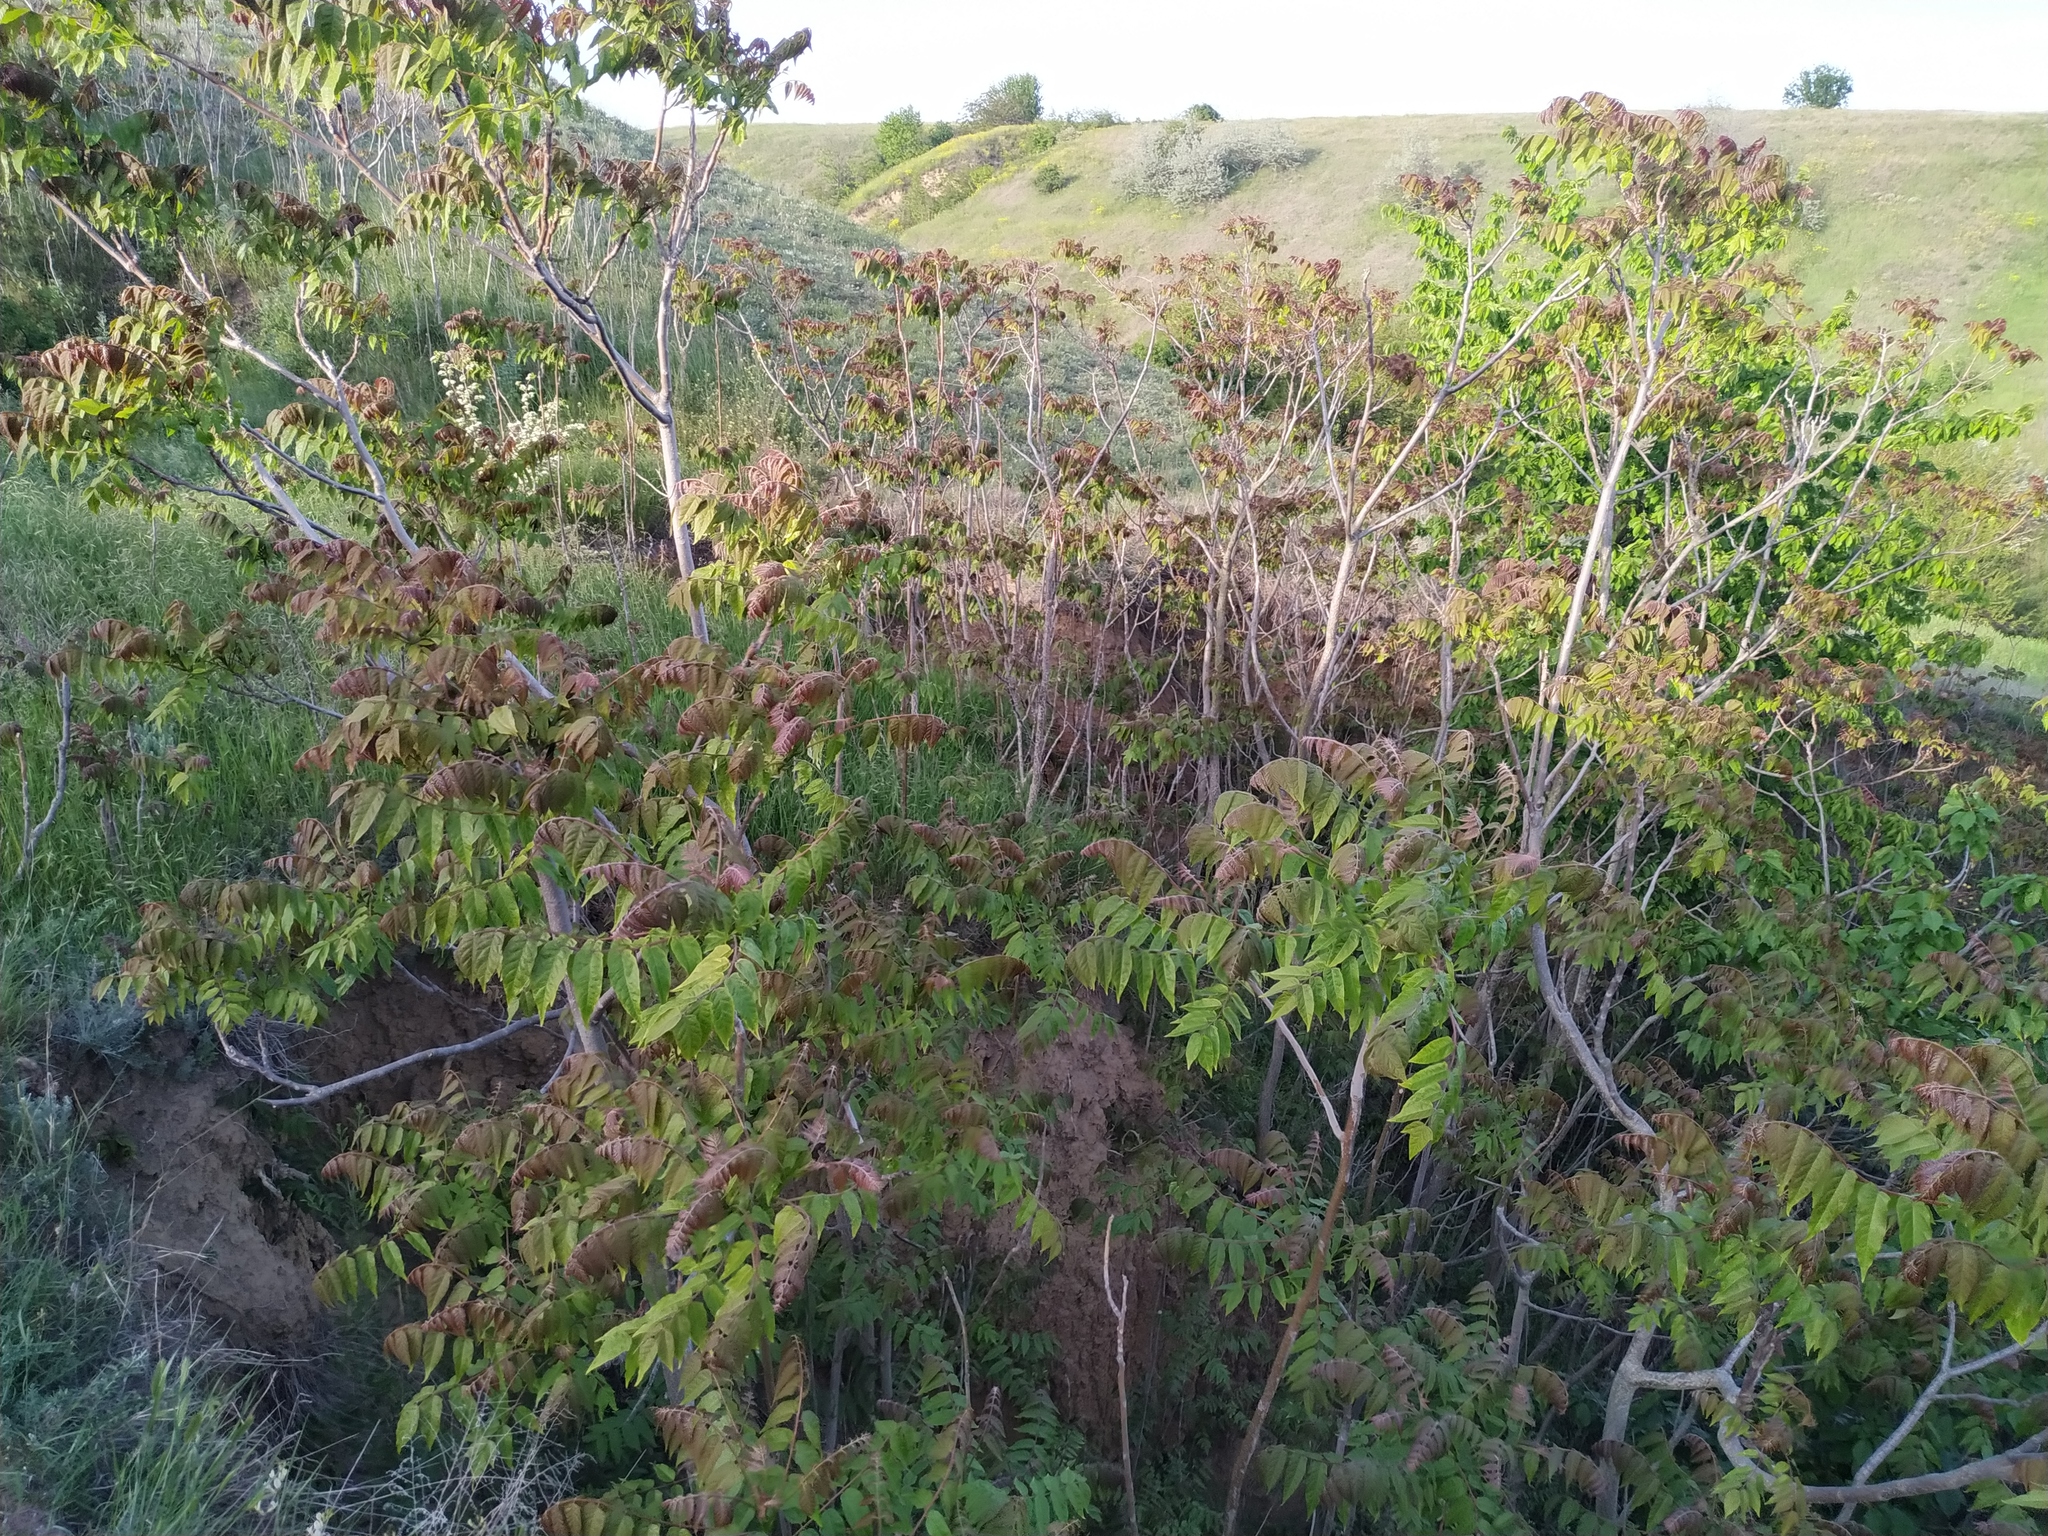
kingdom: Plantae
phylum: Tracheophyta
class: Magnoliopsida
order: Sapindales
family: Simaroubaceae
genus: Ailanthus
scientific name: Ailanthus altissima
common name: Tree-of-heaven
